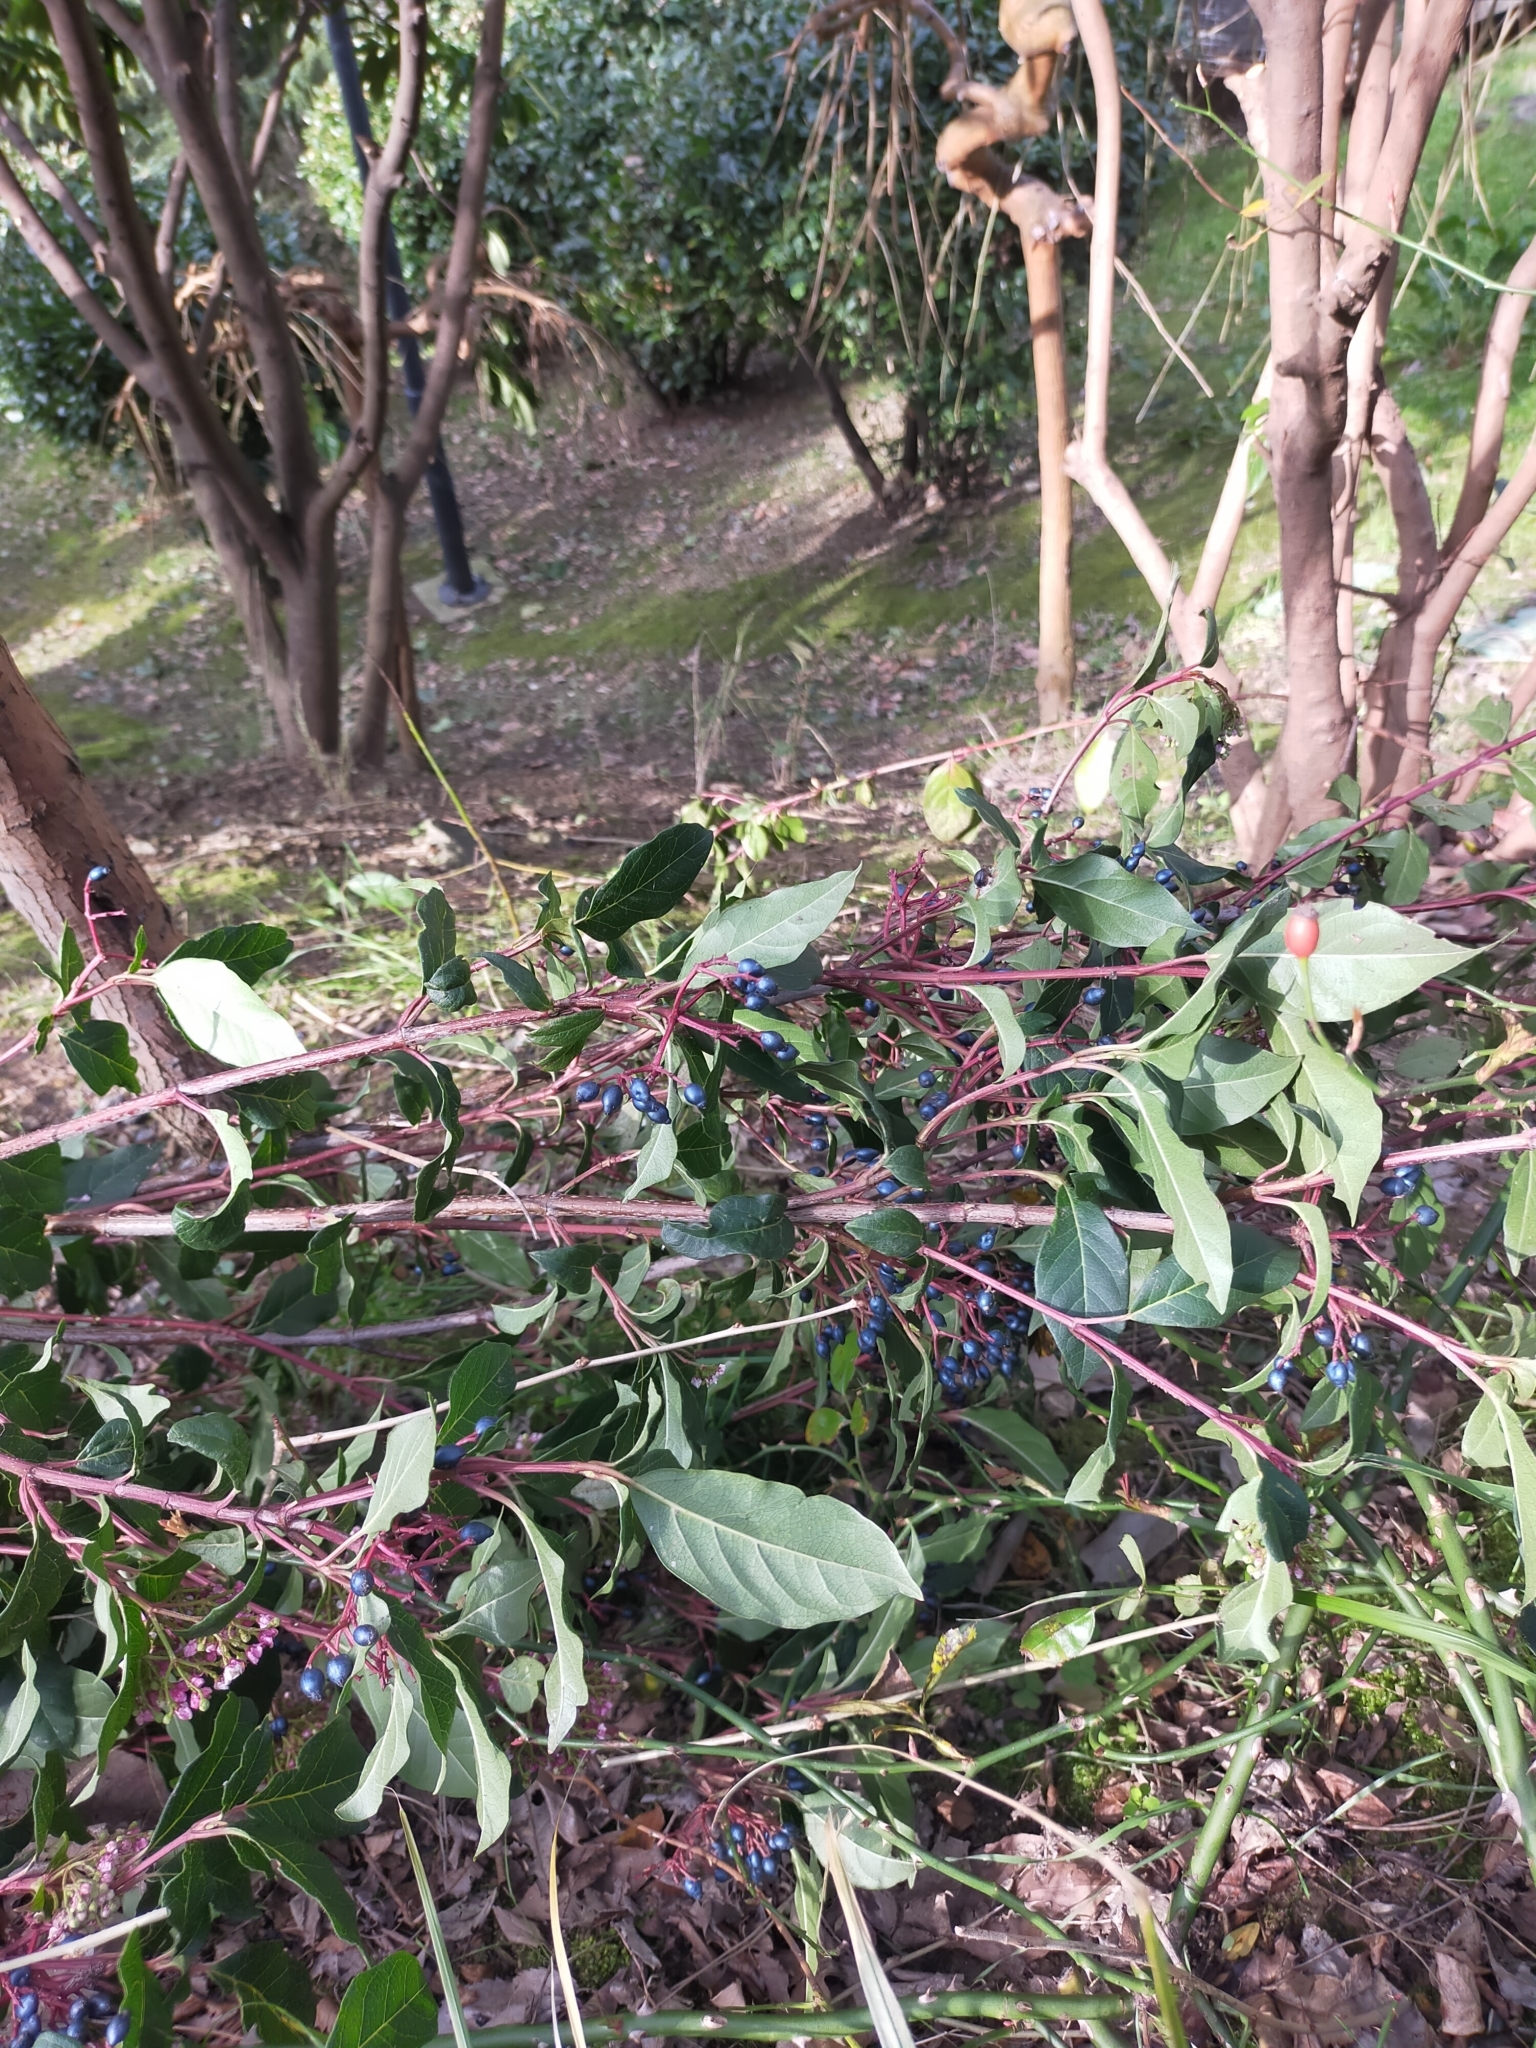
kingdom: Plantae
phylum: Tracheophyta
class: Magnoliopsida
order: Dipsacales
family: Viburnaceae
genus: Viburnum
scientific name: Viburnum tinus
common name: Laurustinus
